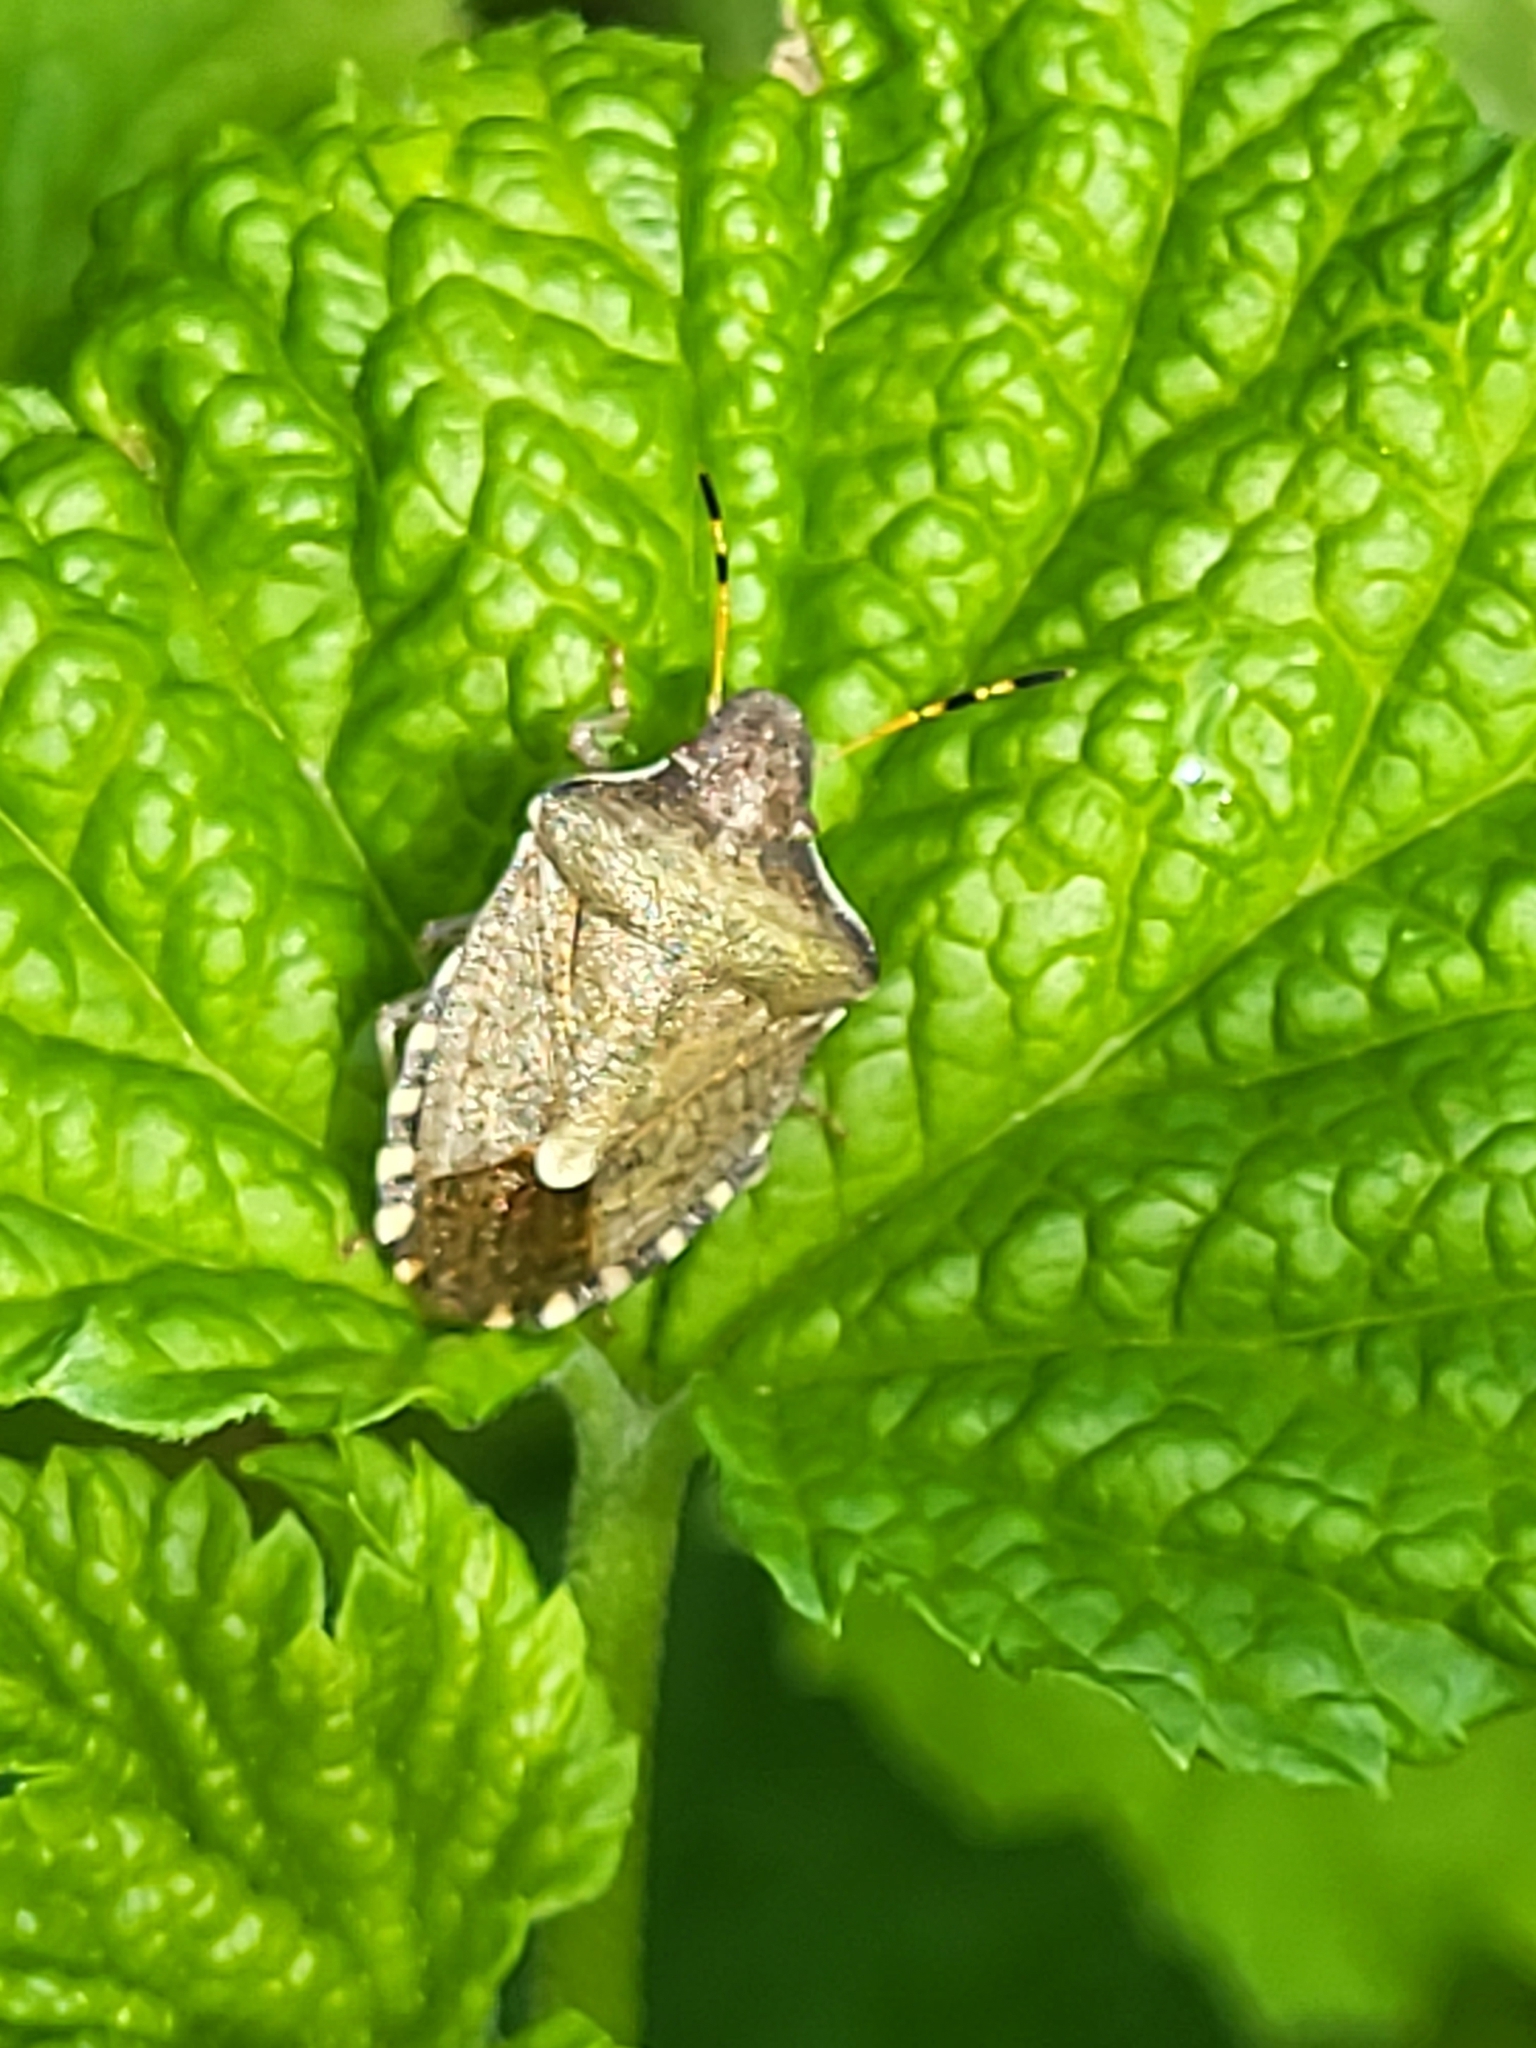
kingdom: Animalia
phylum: Arthropoda
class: Insecta
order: Hemiptera
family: Pentatomidae
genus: Holcostethus
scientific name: Holcostethus strictus
